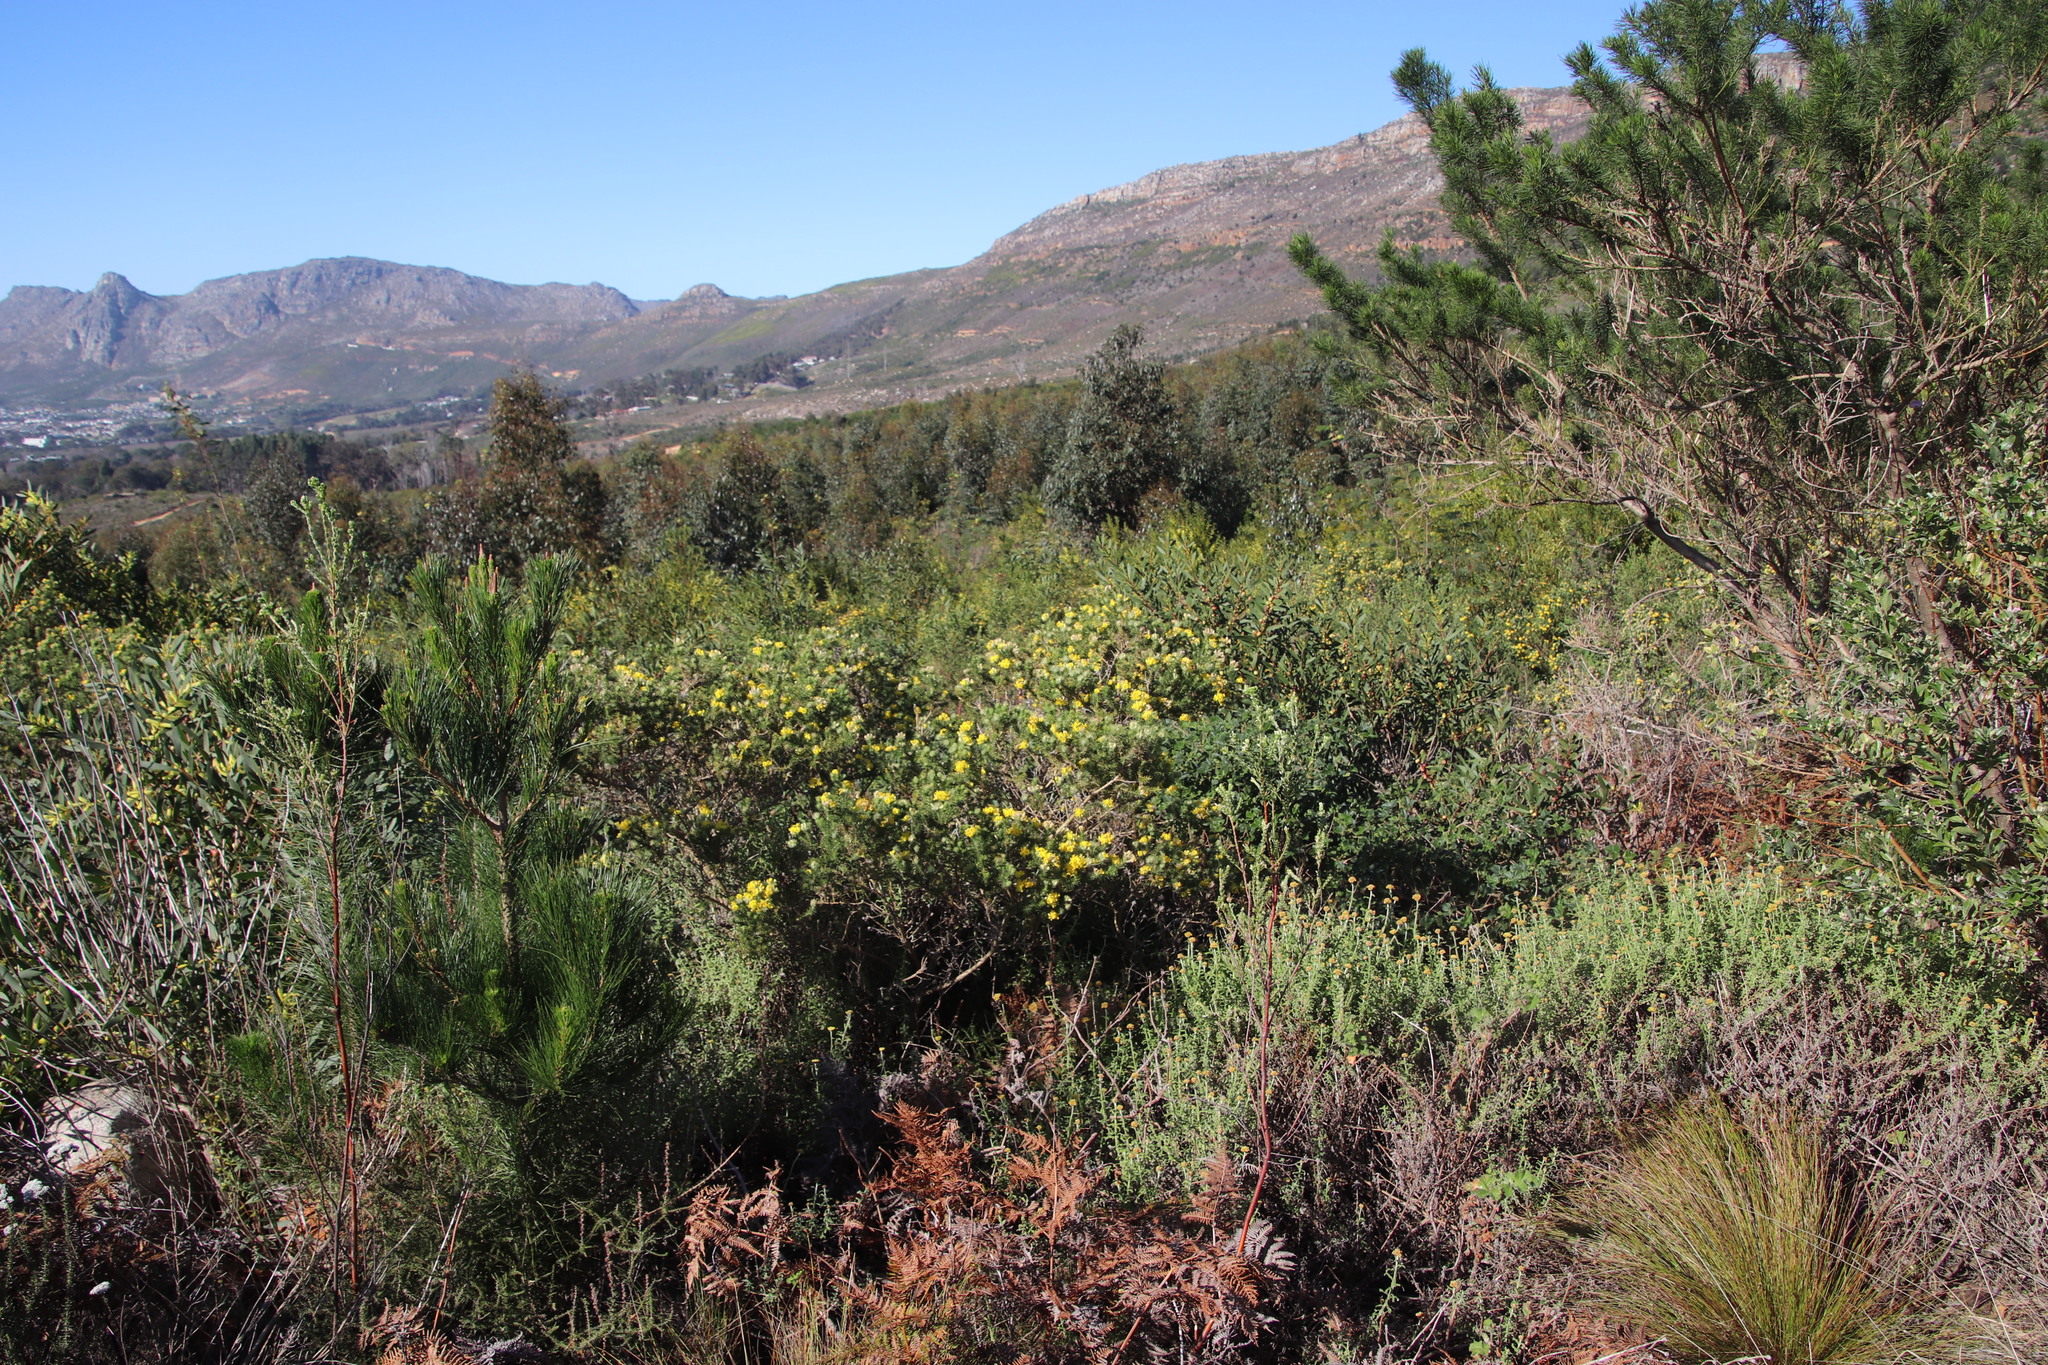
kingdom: Plantae
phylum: Tracheophyta
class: Magnoliopsida
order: Fabales
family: Fabaceae
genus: Aspalathus
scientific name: Aspalathus chenopoda
